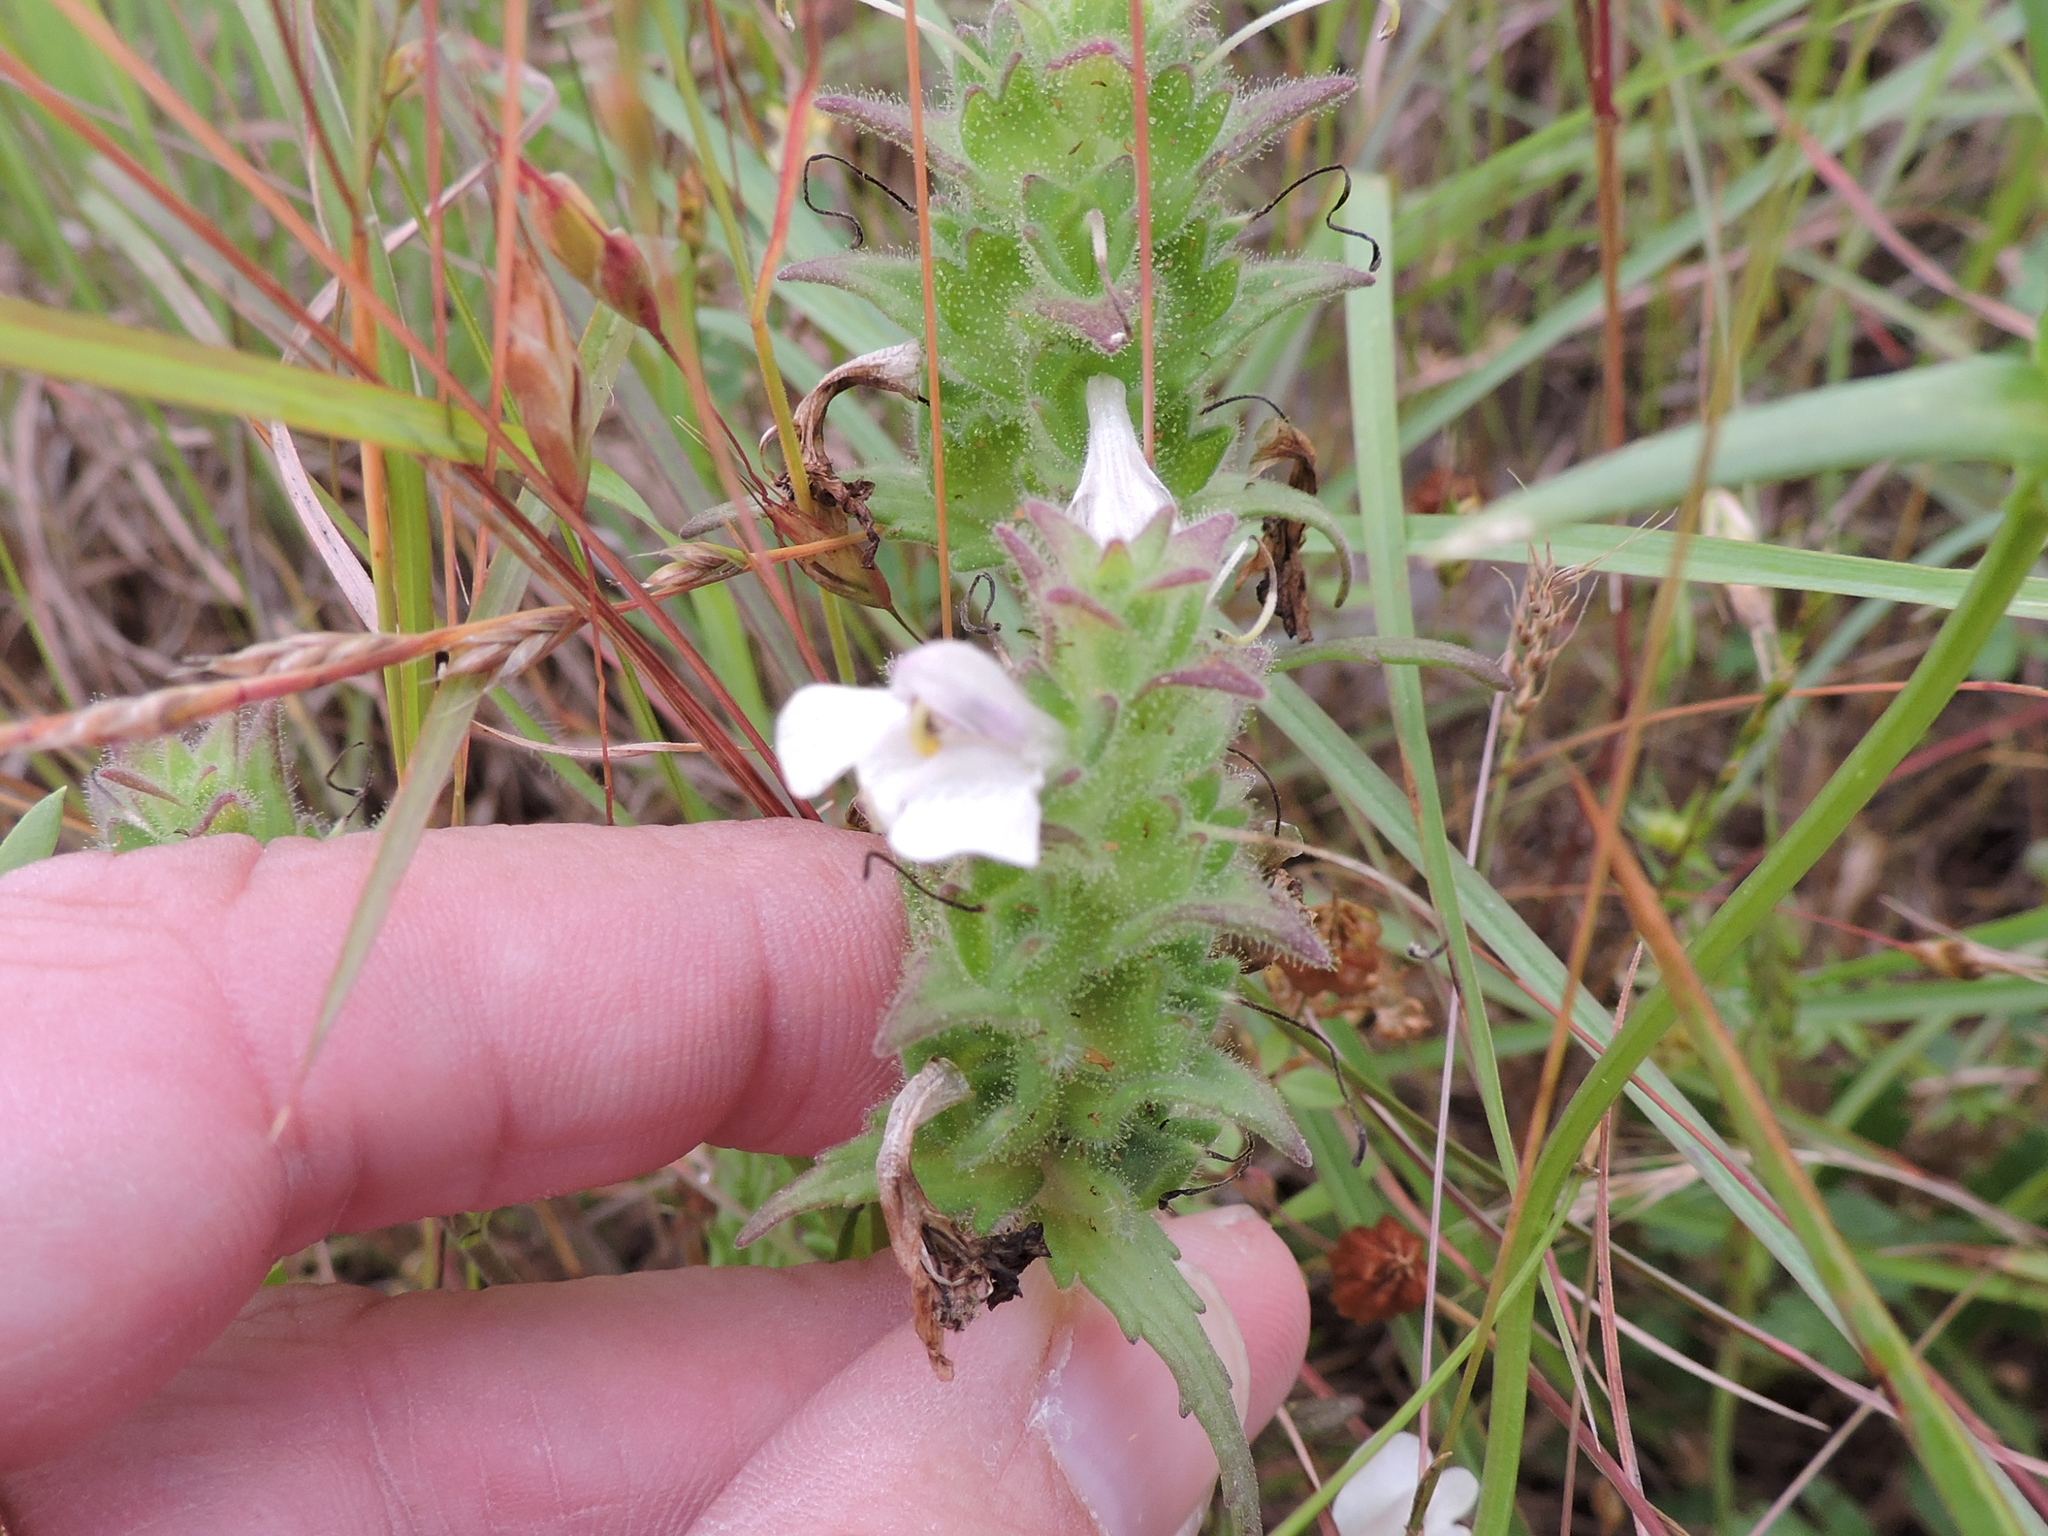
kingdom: Plantae
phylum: Tracheophyta
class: Magnoliopsida
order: Lamiales
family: Orobanchaceae
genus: Bellardia
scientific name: Bellardia trixago
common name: Mediterranean lineseed
